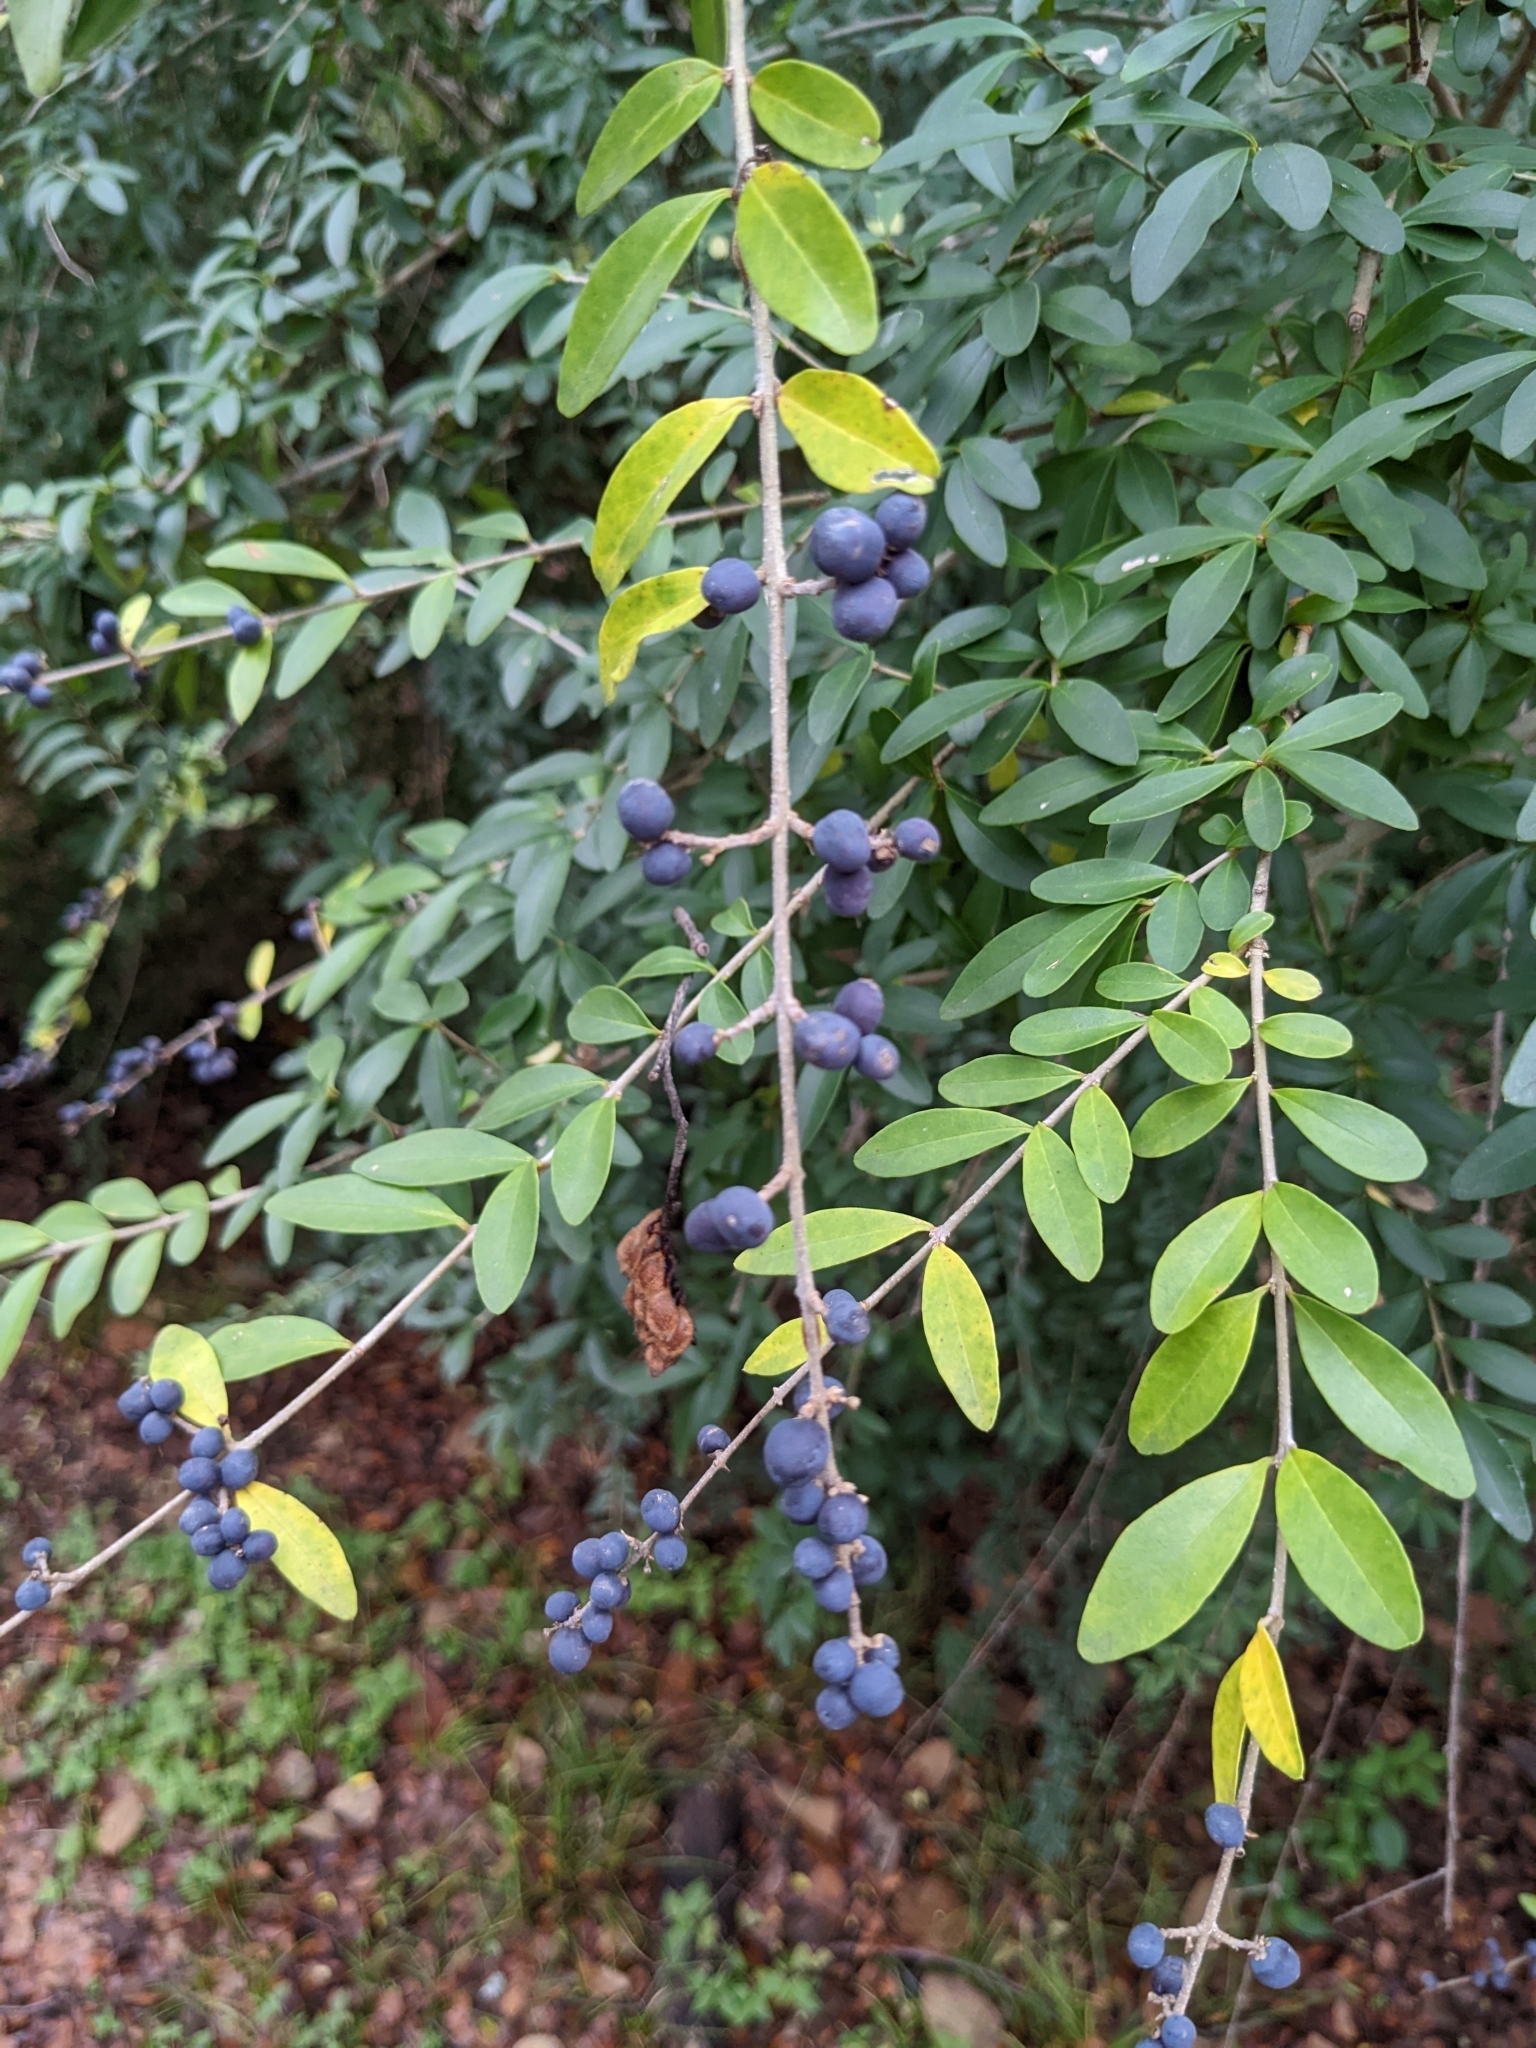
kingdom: Plantae
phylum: Tracheophyta
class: Magnoliopsida
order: Lamiales
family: Oleaceae
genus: Ligustrum
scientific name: Ligustrum quihoui
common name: Waxyleaf privet
